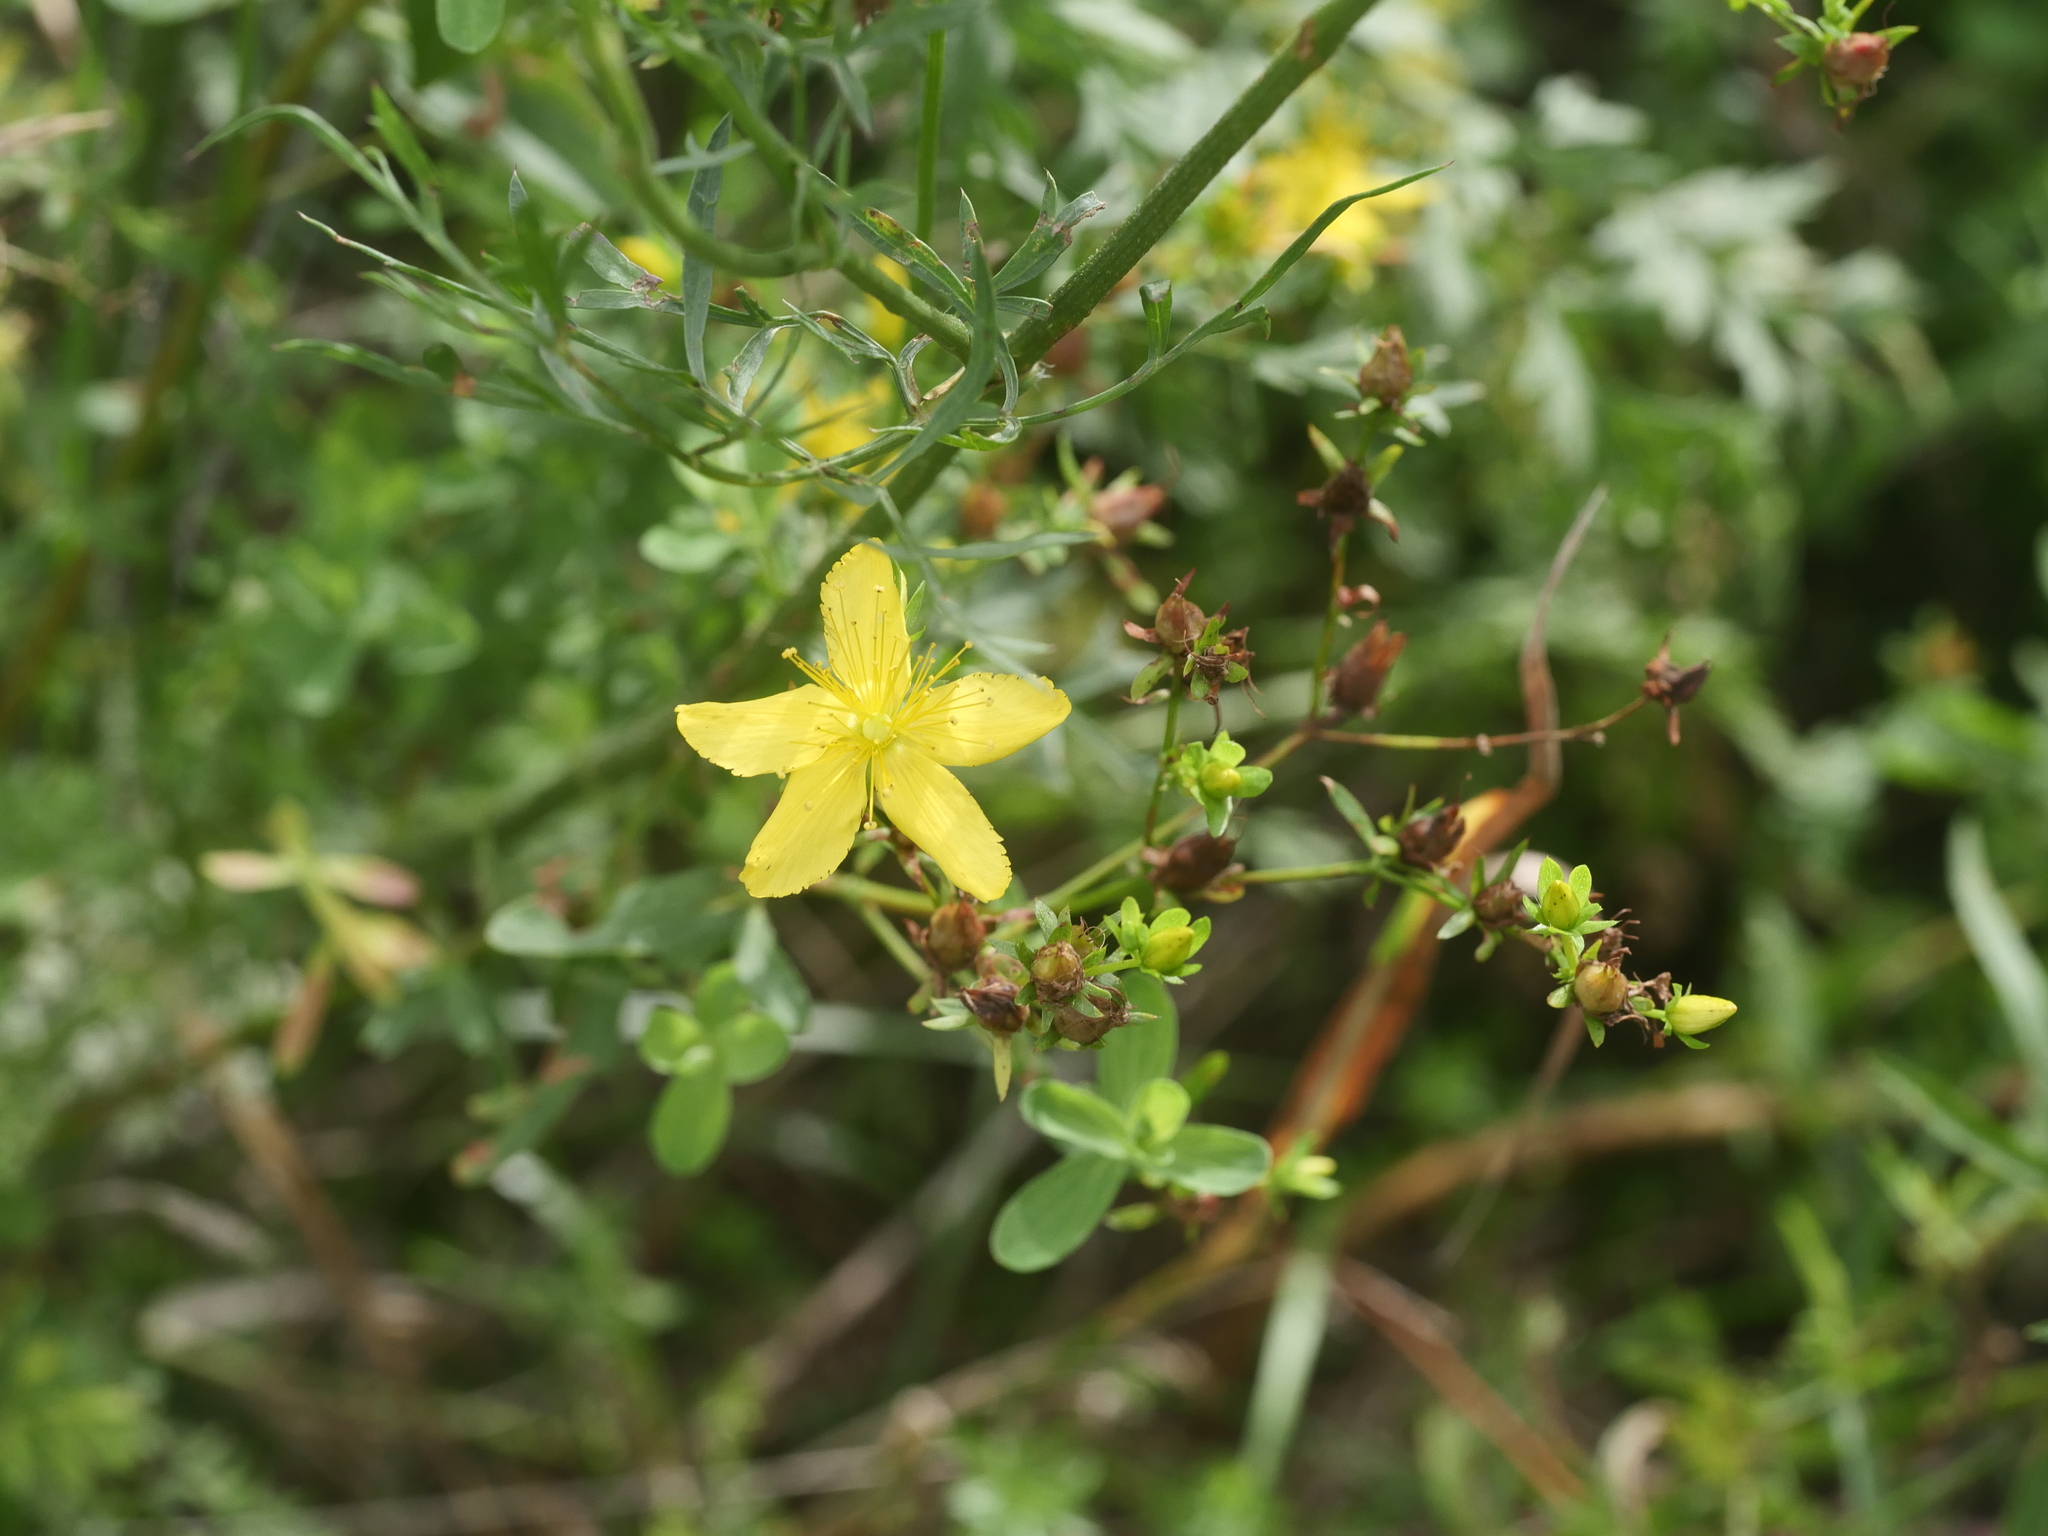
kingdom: Plantae
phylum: Tracheophyta
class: Magnoliopsida
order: Malpighiales
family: Hypericaceae
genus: Hypericum
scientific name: Hypericum perforatum
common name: Common st. johnswort
